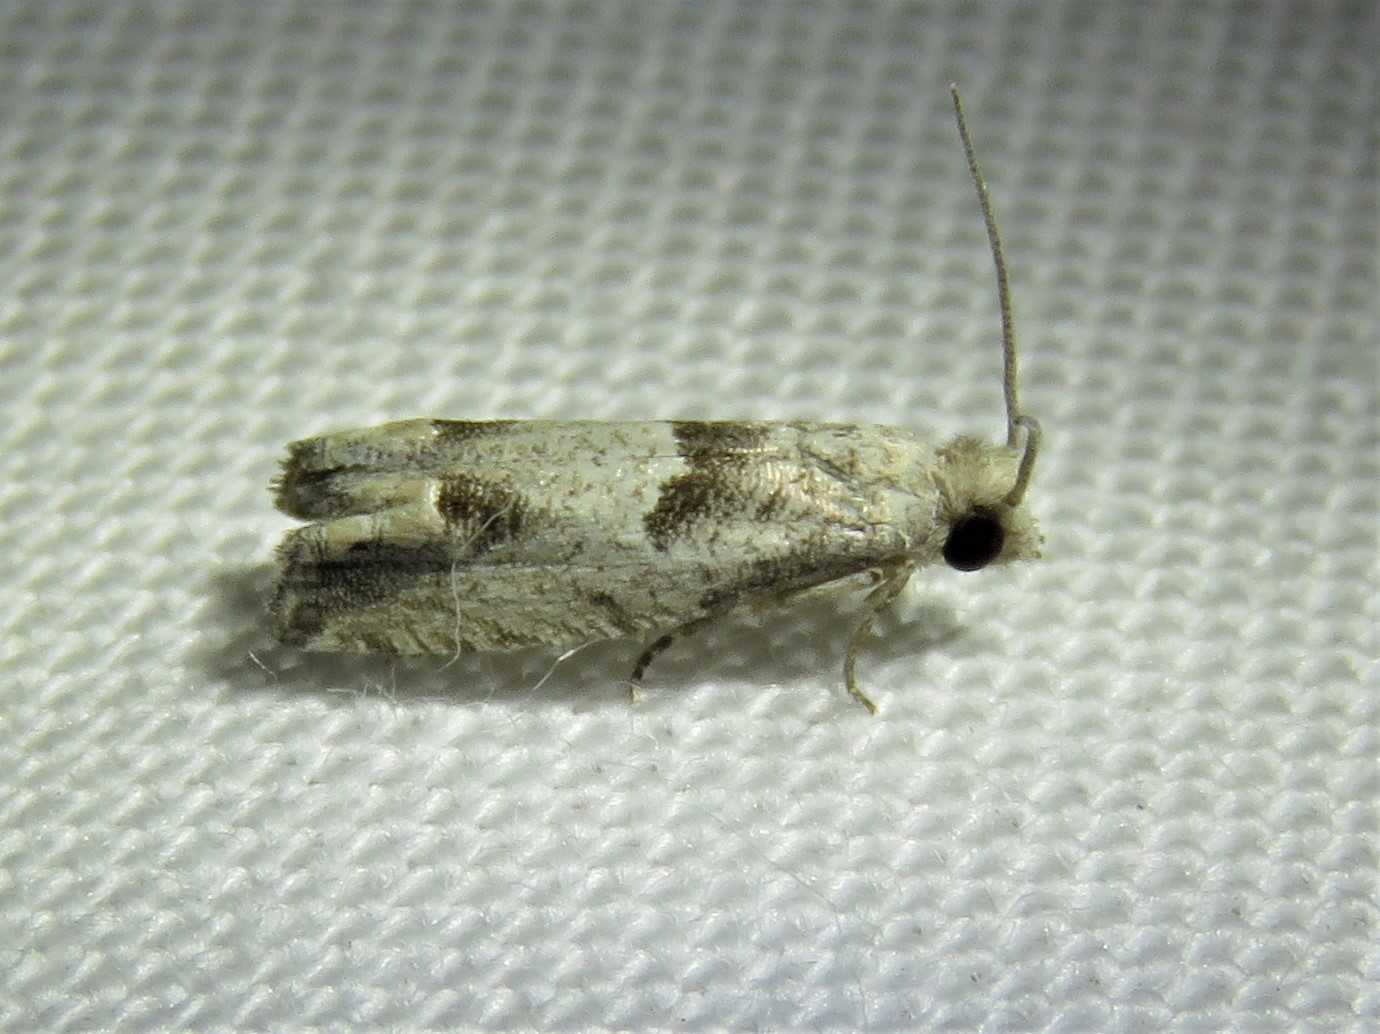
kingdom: Animalia
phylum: Arthropoda
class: Insecta
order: Lepidoptera
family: Tortricidae
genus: Pelochrista
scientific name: Pelochrista canana
